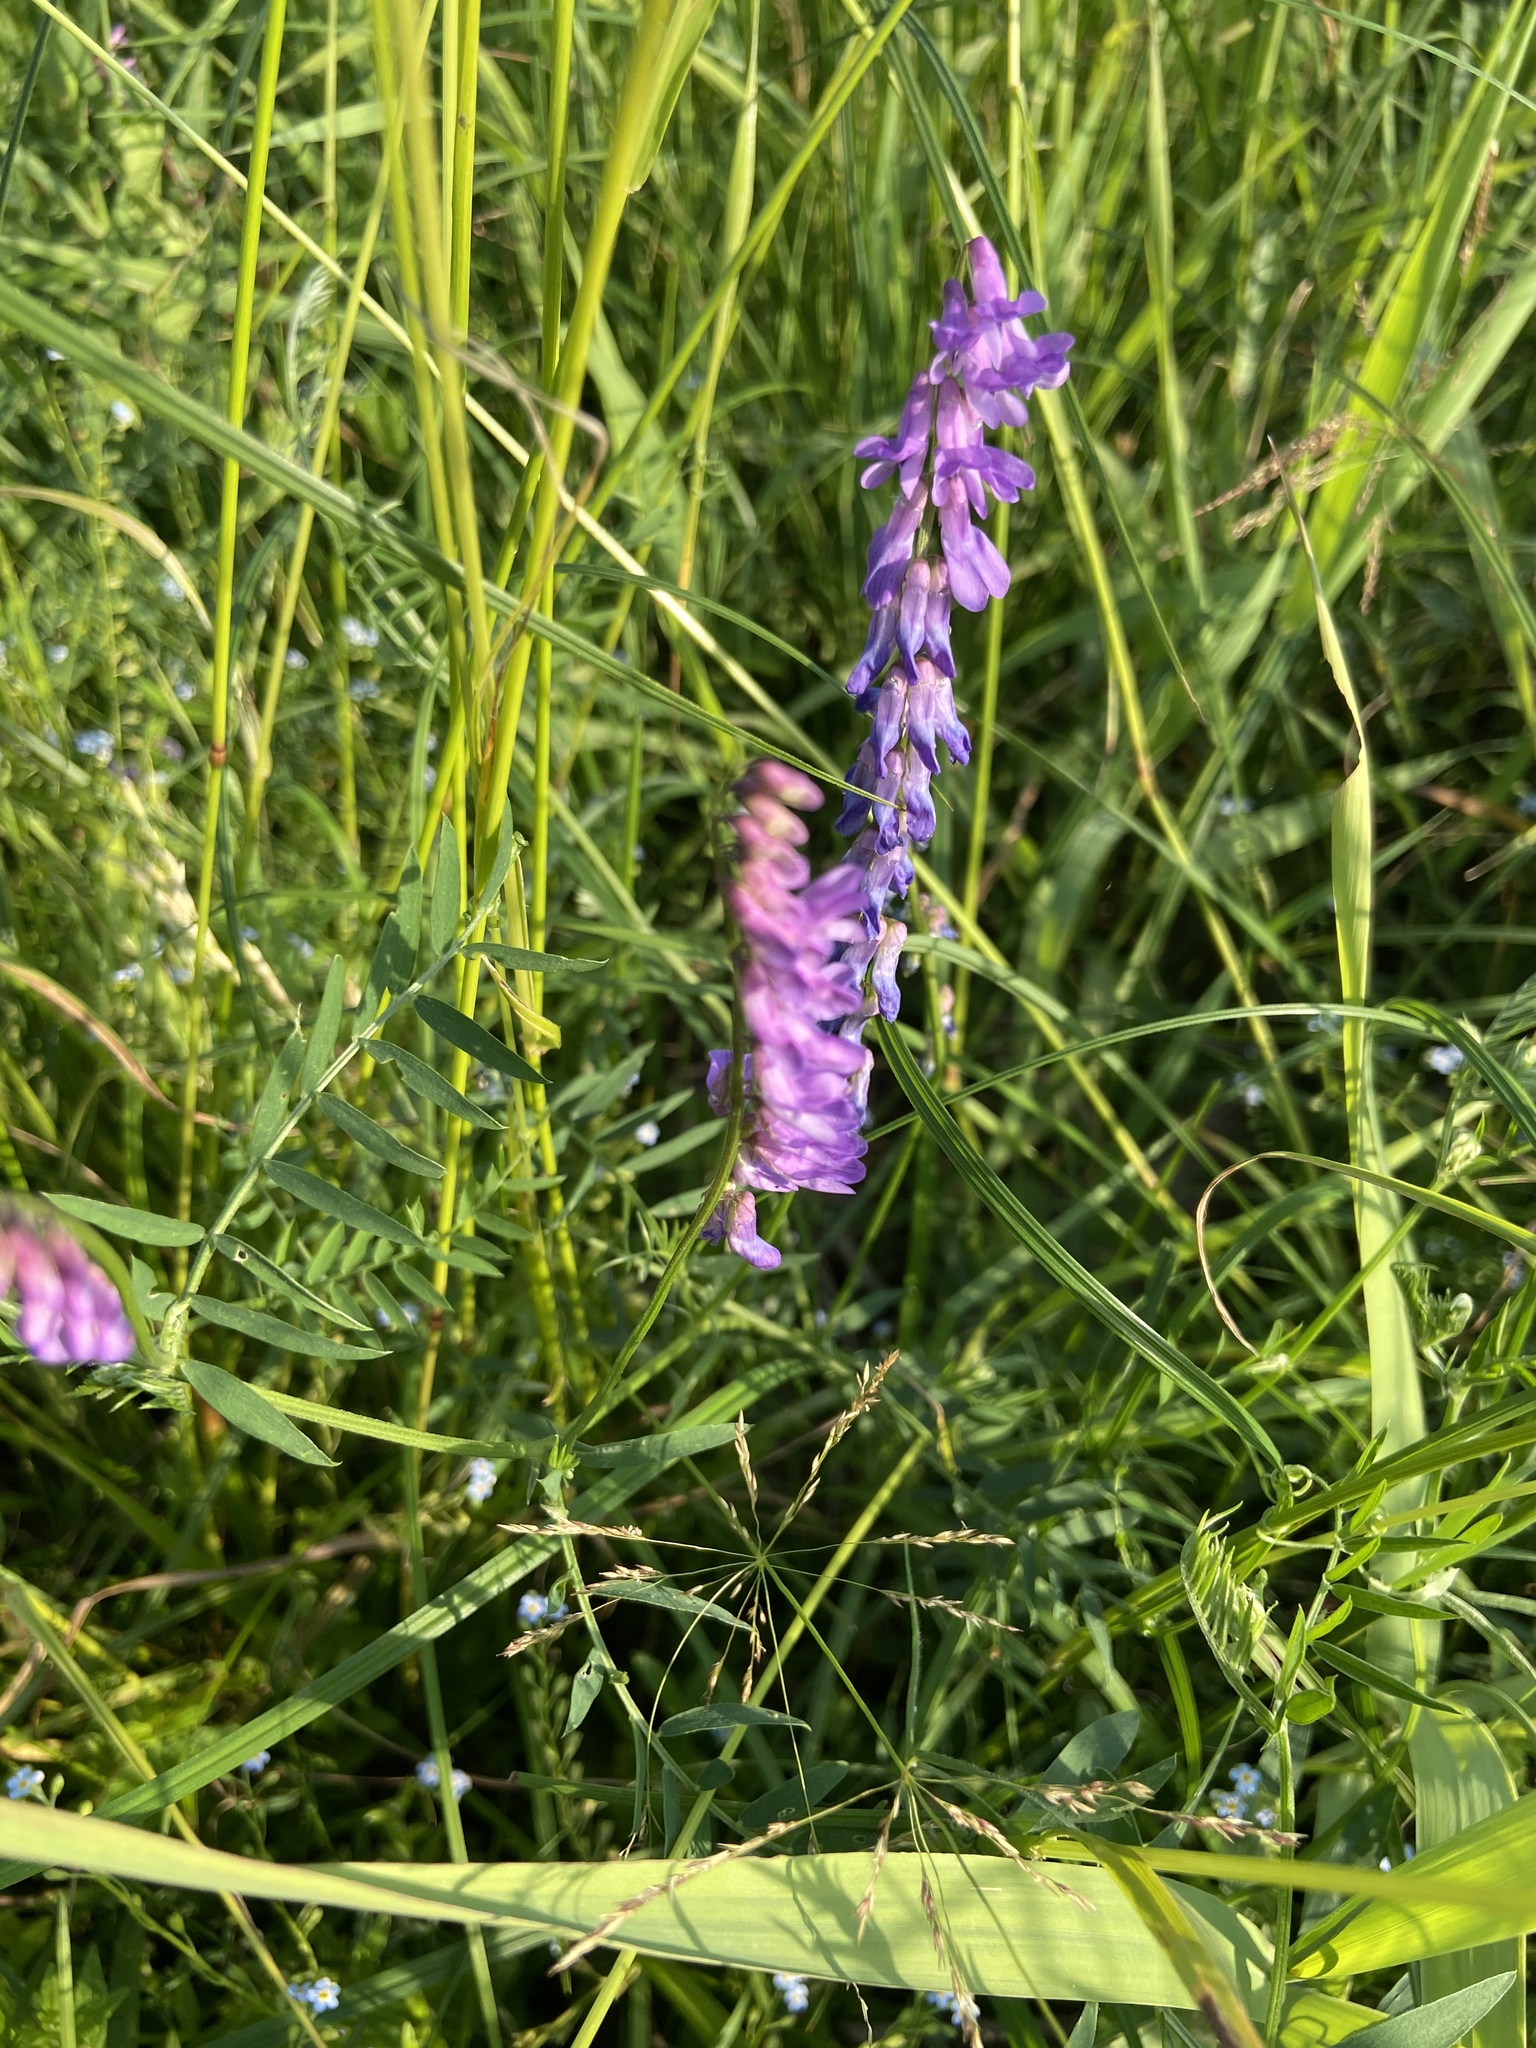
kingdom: Plantae
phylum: Tracheophyta
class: Magnoliopsida
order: Fabales
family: Fabaceae
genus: Vicia
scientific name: Vicia cracca
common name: Bird vetch
